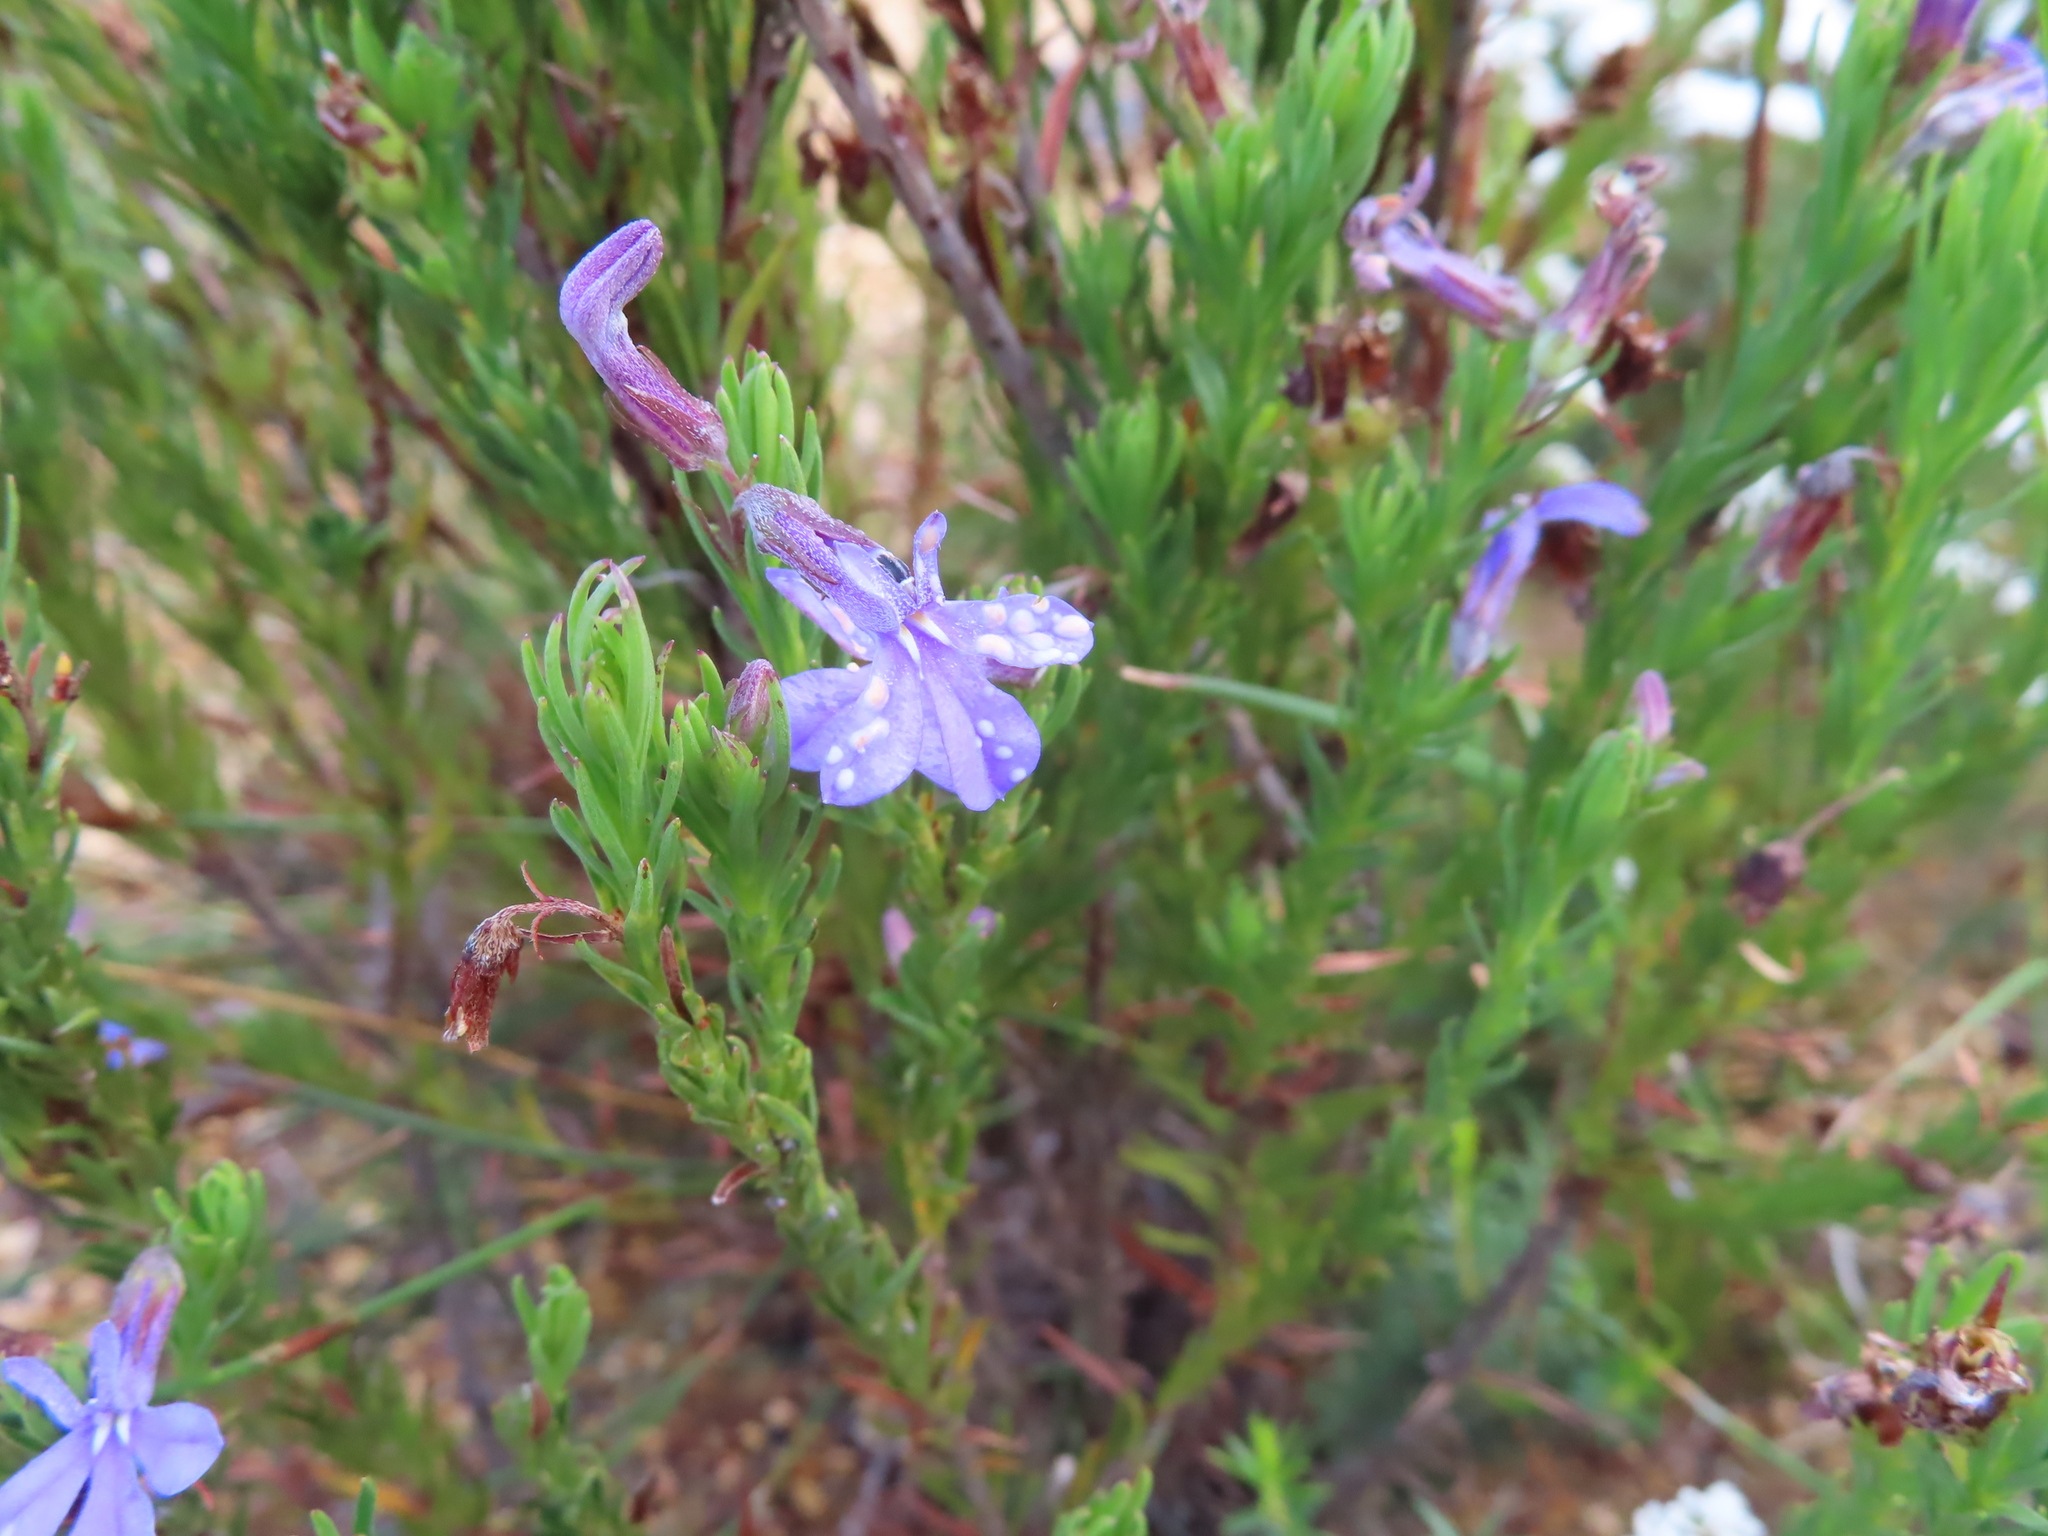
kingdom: Plantae
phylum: Tracheophyta
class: Magnoliopsida
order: Asterales
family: Campanulaceae
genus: Lobelia
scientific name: Lobelia pinifolia
